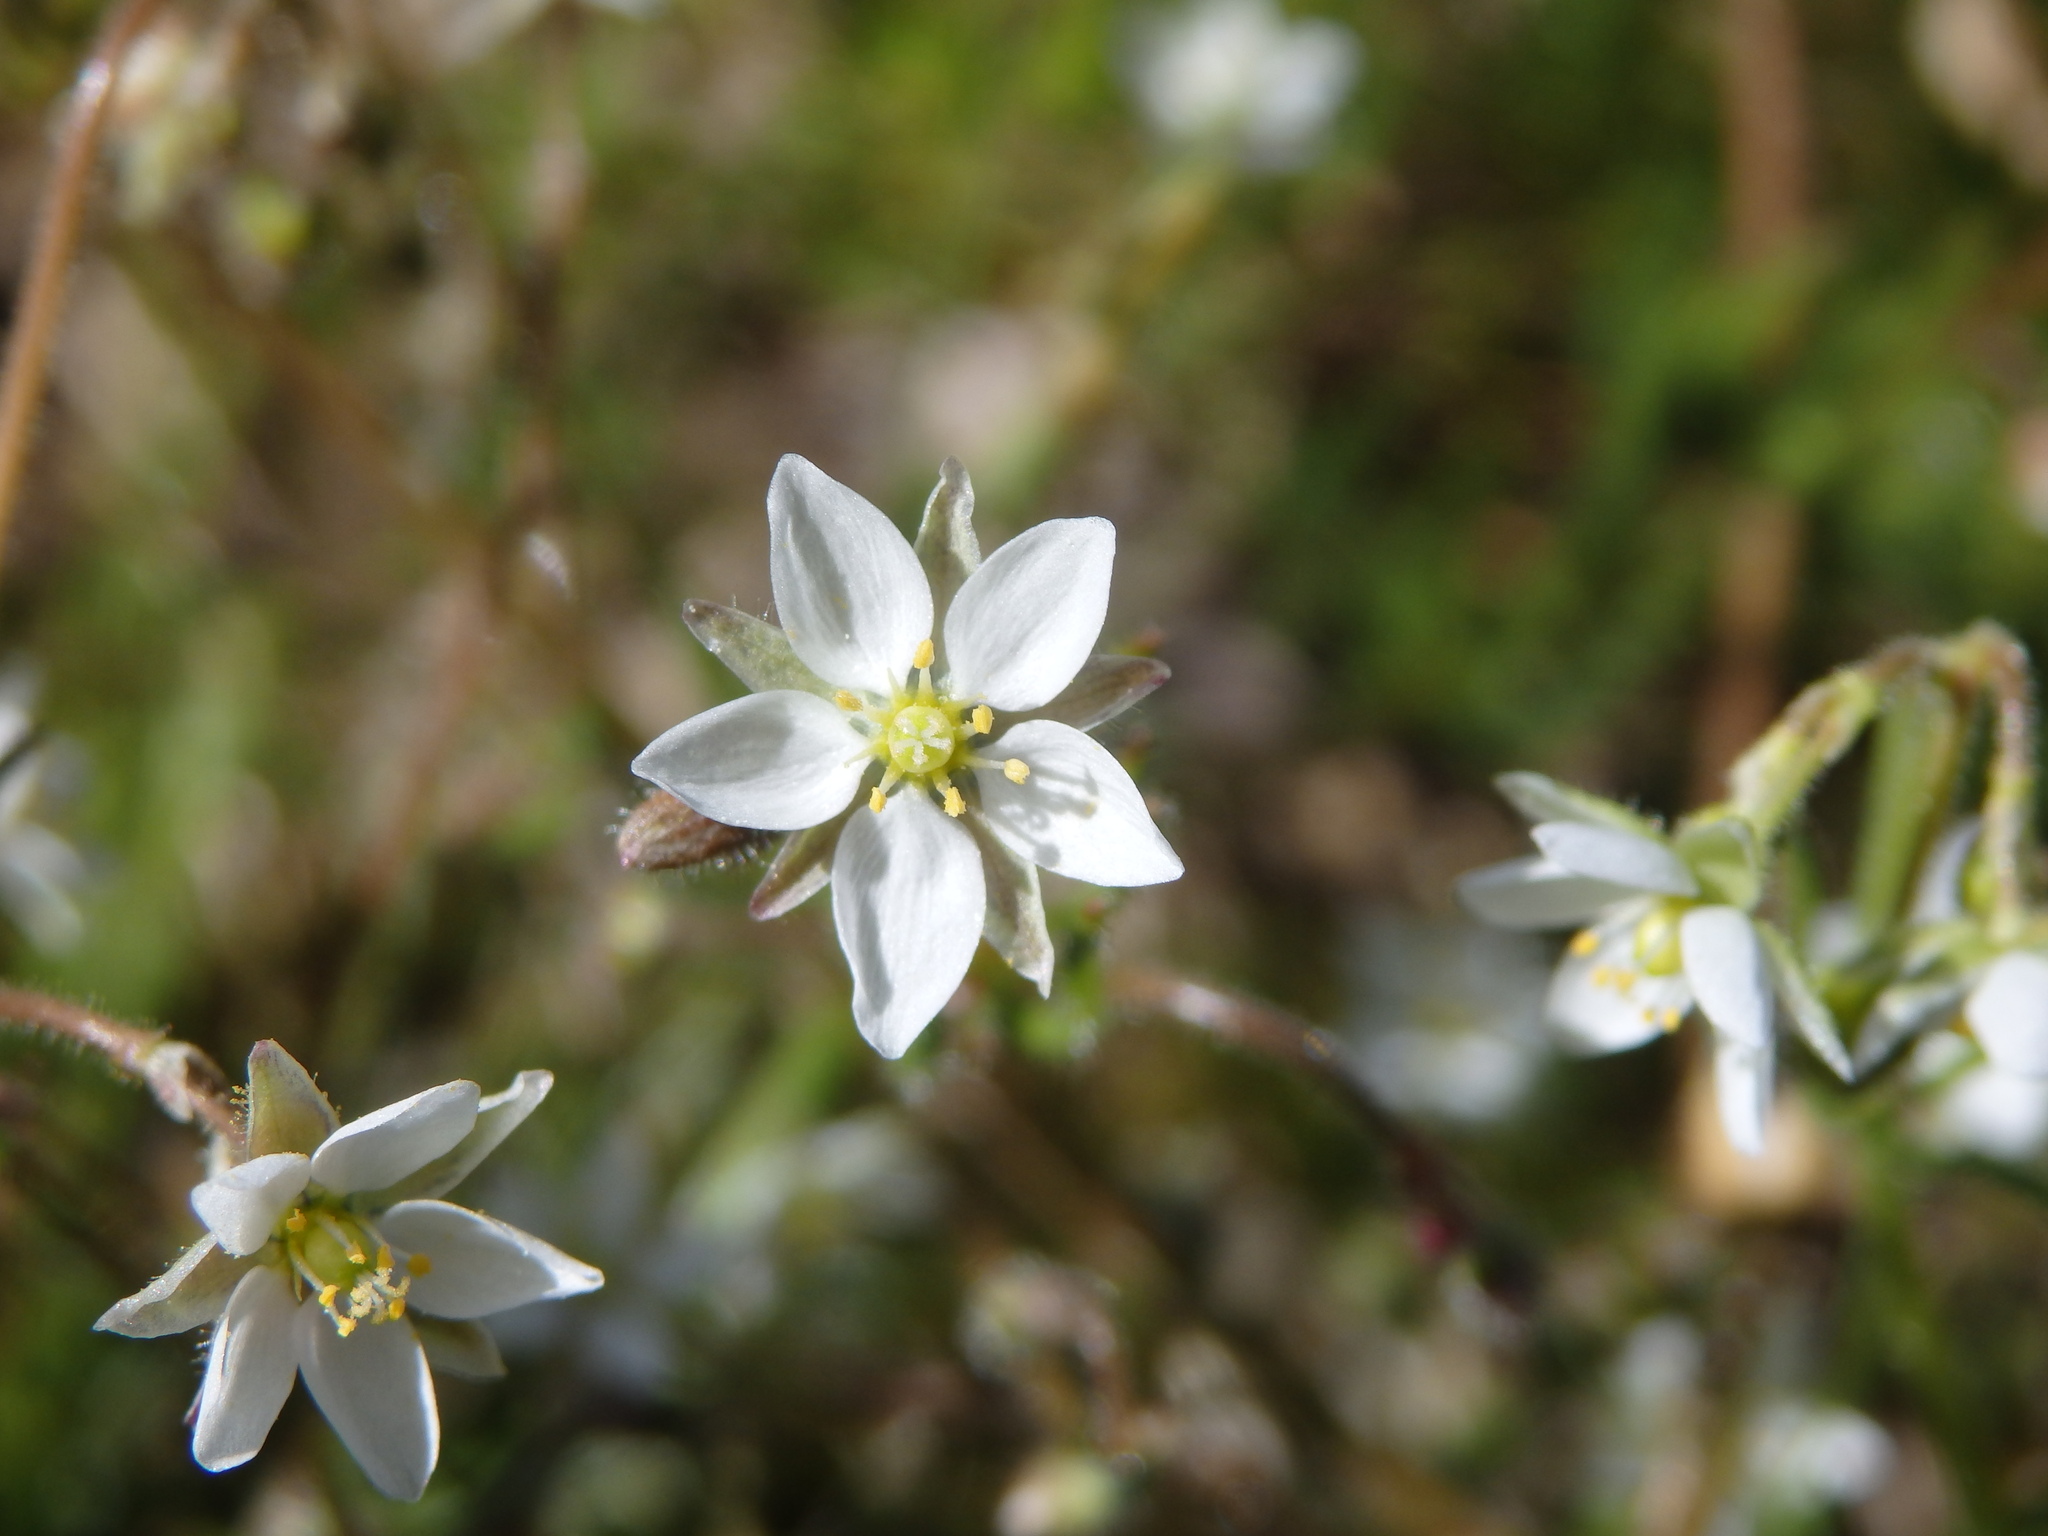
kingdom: Plantae
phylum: Tracheophyta
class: Magnoliopsida
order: Caryophyllales
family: Caryophyllaceae
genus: Spergula
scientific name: Spergula arvensis
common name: Corn spurrey
